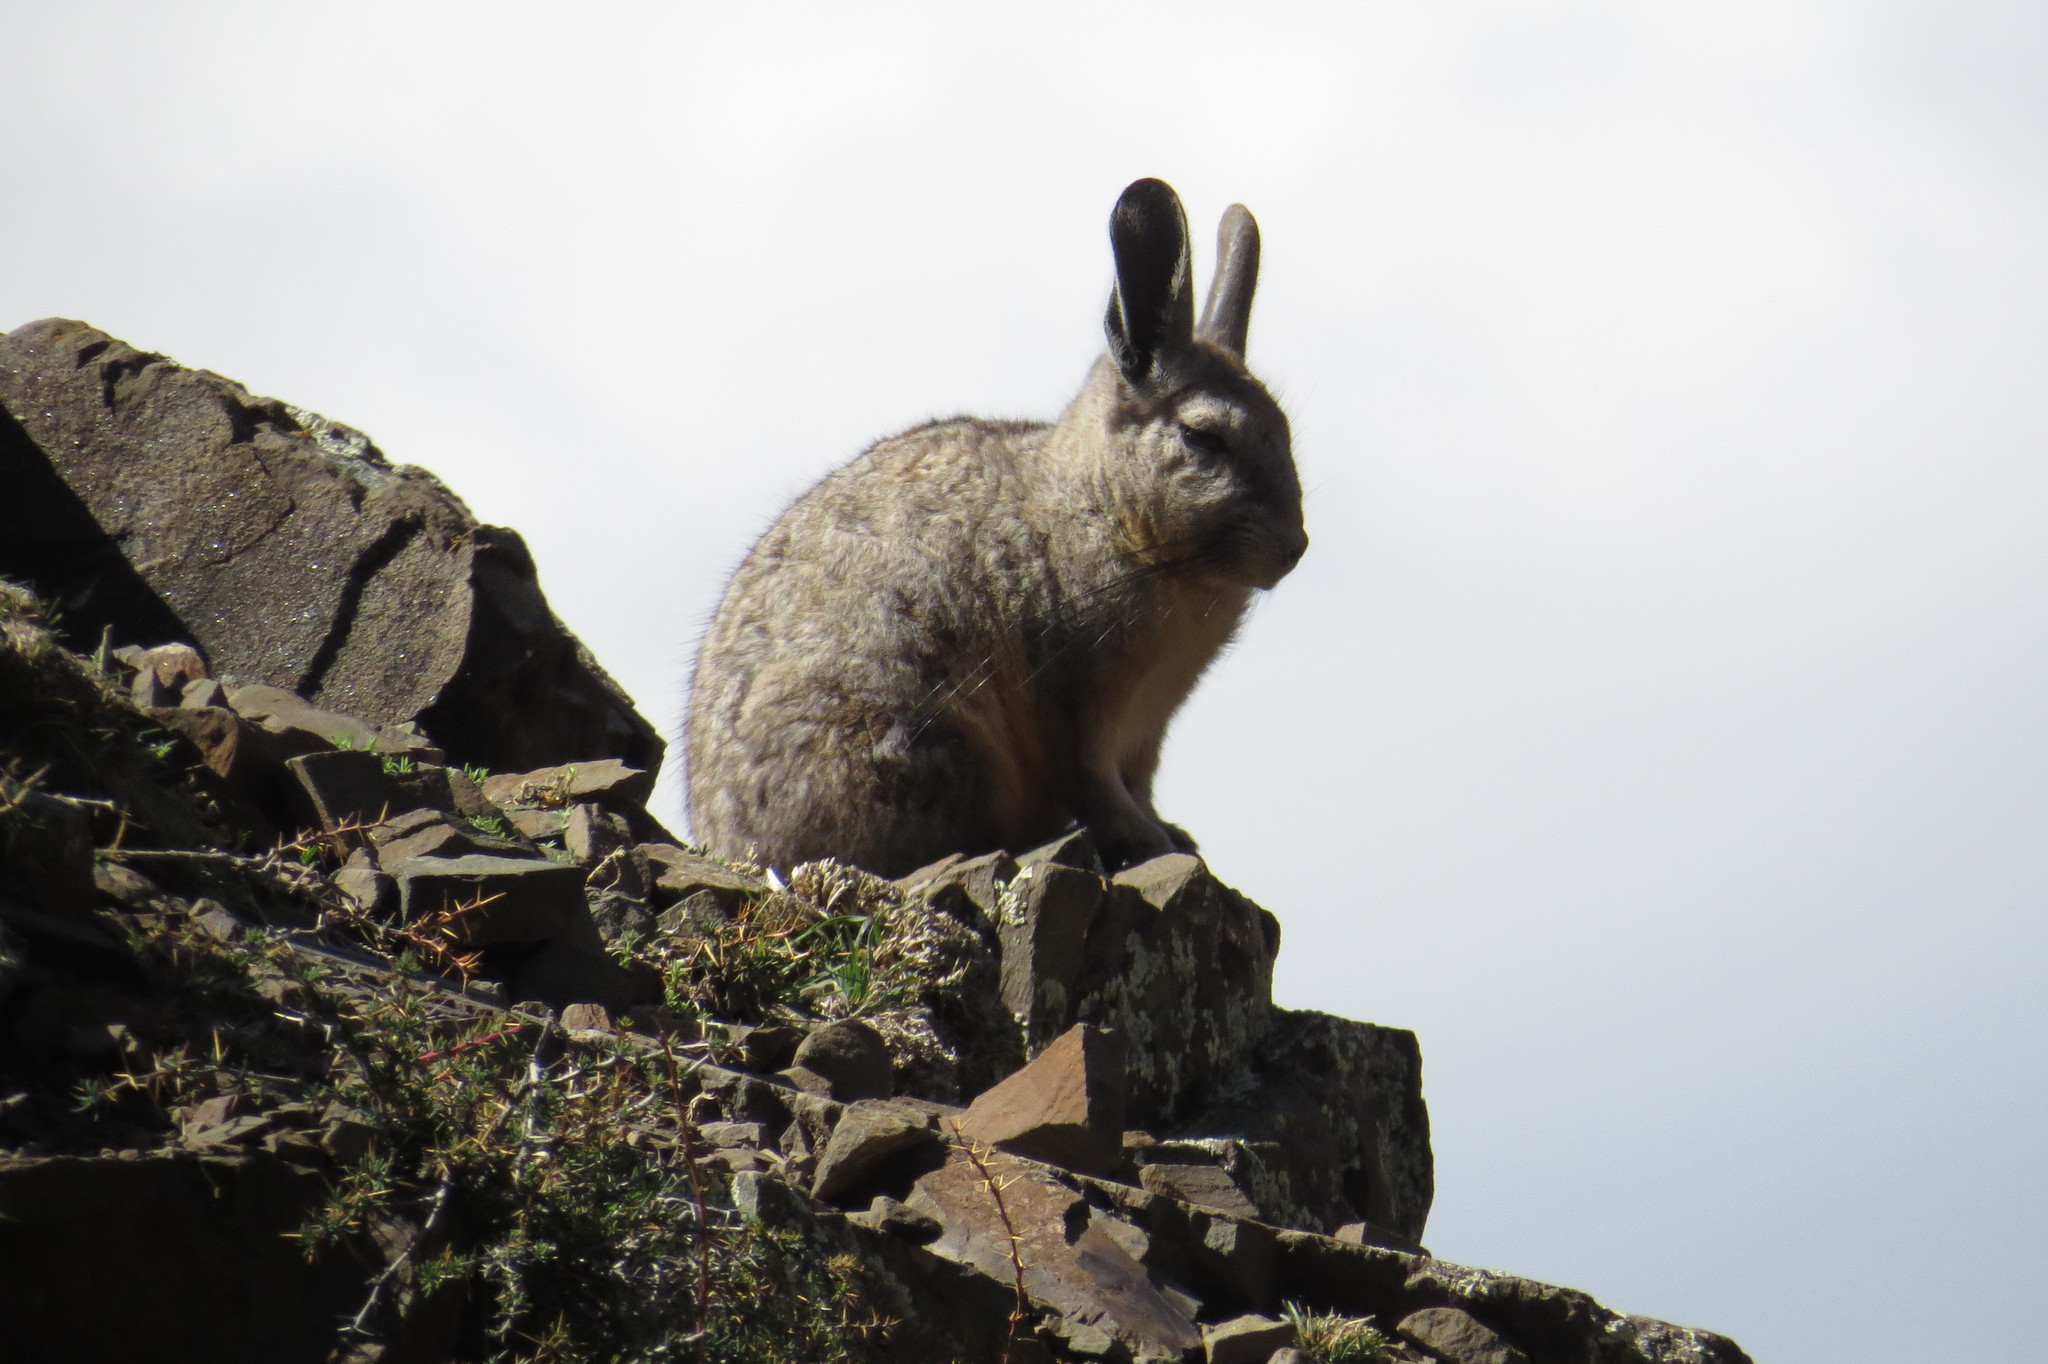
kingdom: Animalia
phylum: Chordata
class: Mammalia
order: Rodentia
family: Chinchillidae
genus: Lagidium
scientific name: Lagidium viscacia
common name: Southern viscacha
